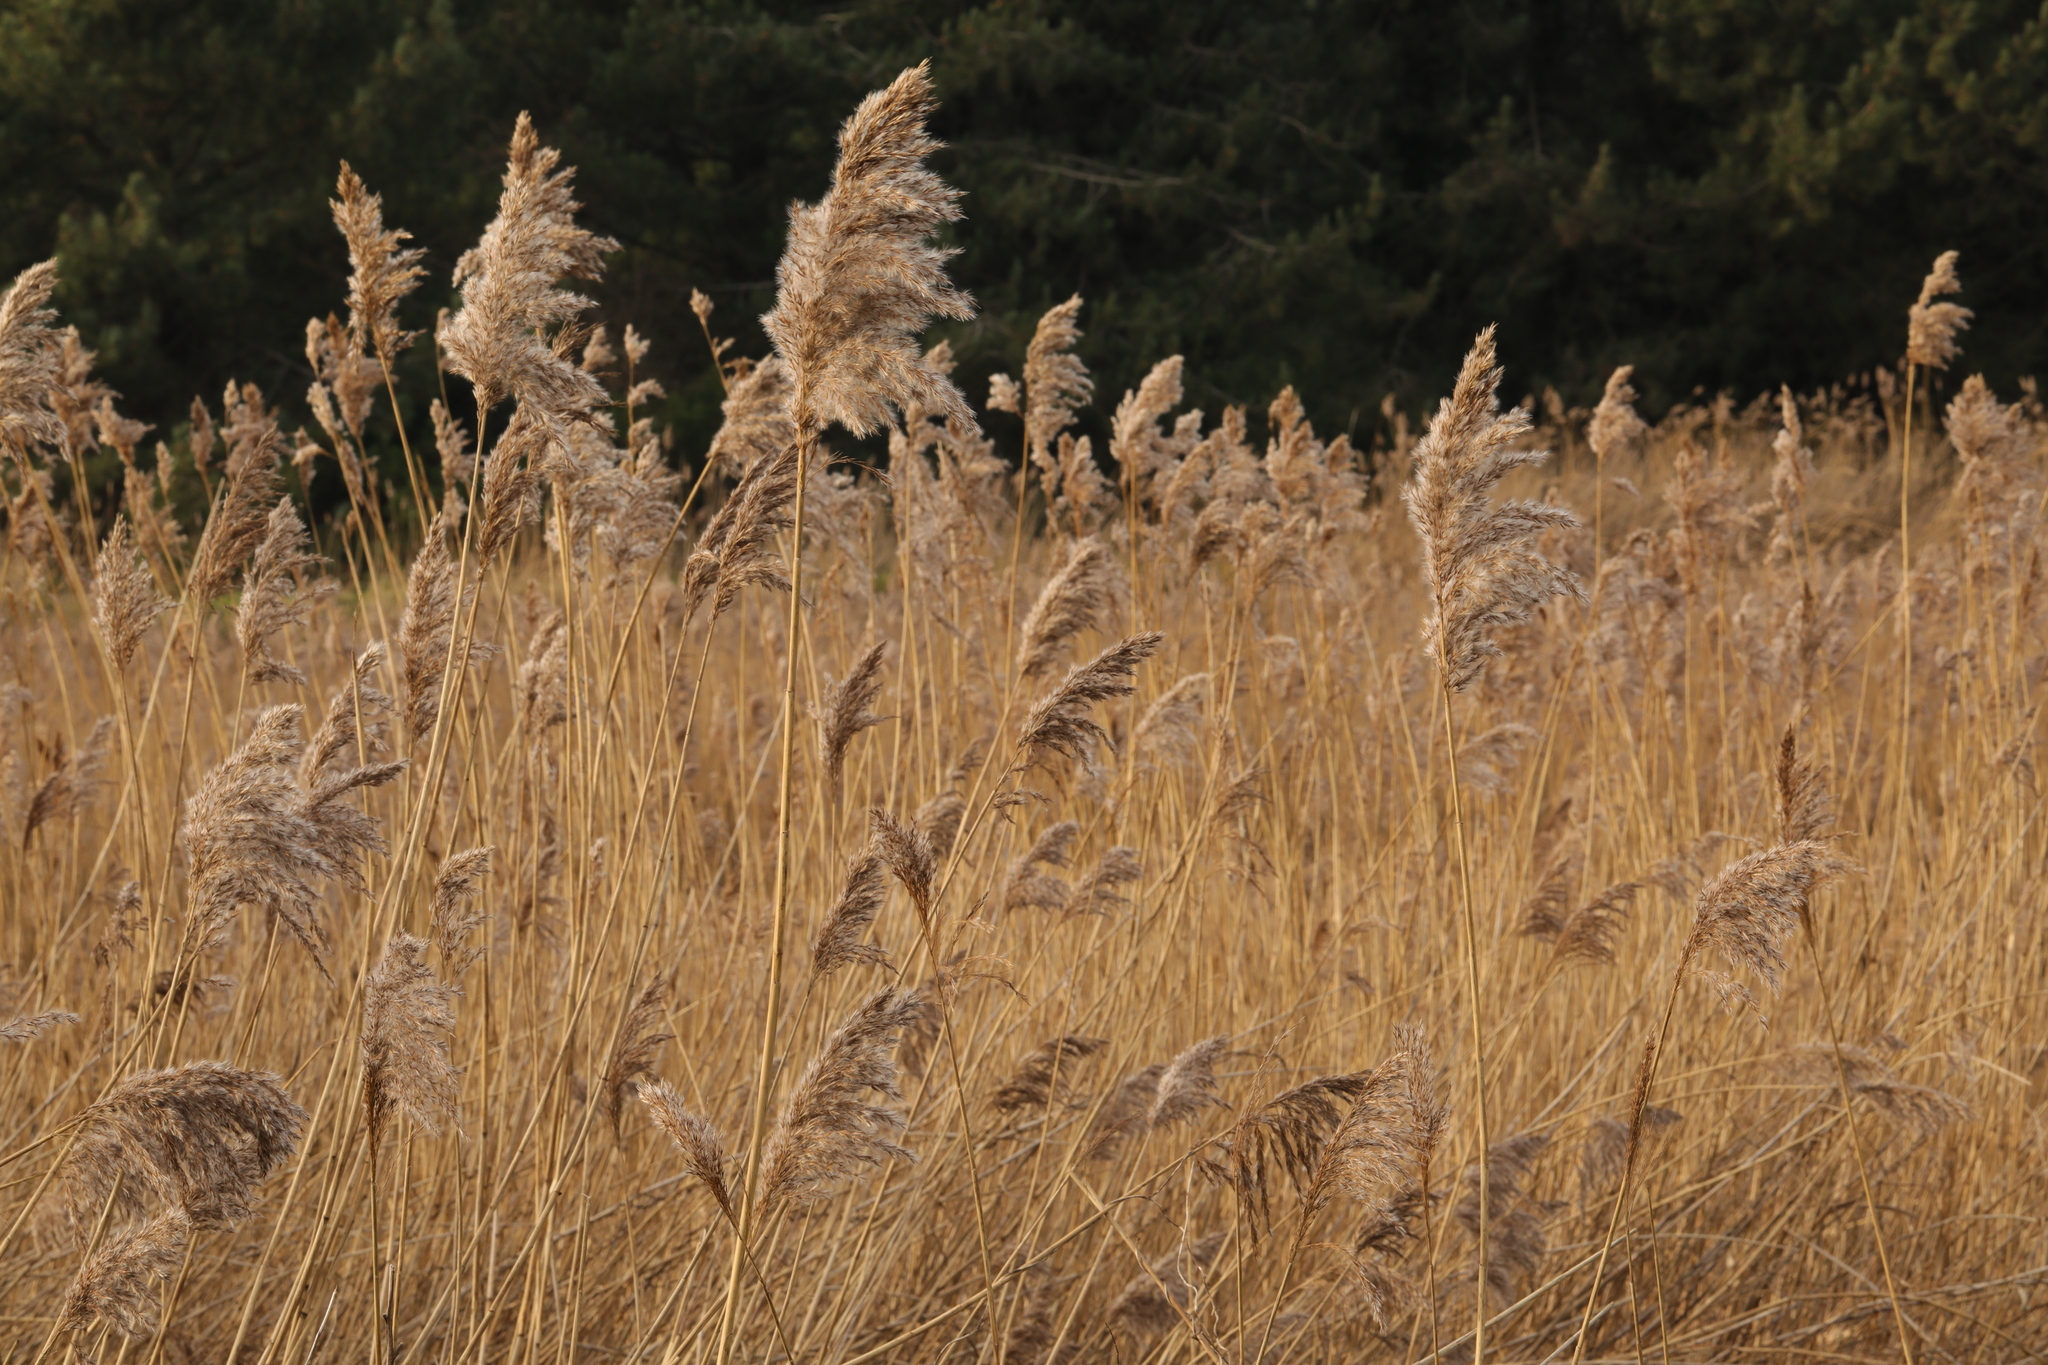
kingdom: Plantae
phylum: Tracheophyta
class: Liliopsida
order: Poales
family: Poaceae
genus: Phragmites
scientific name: Phragmites australis
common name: Common reed
